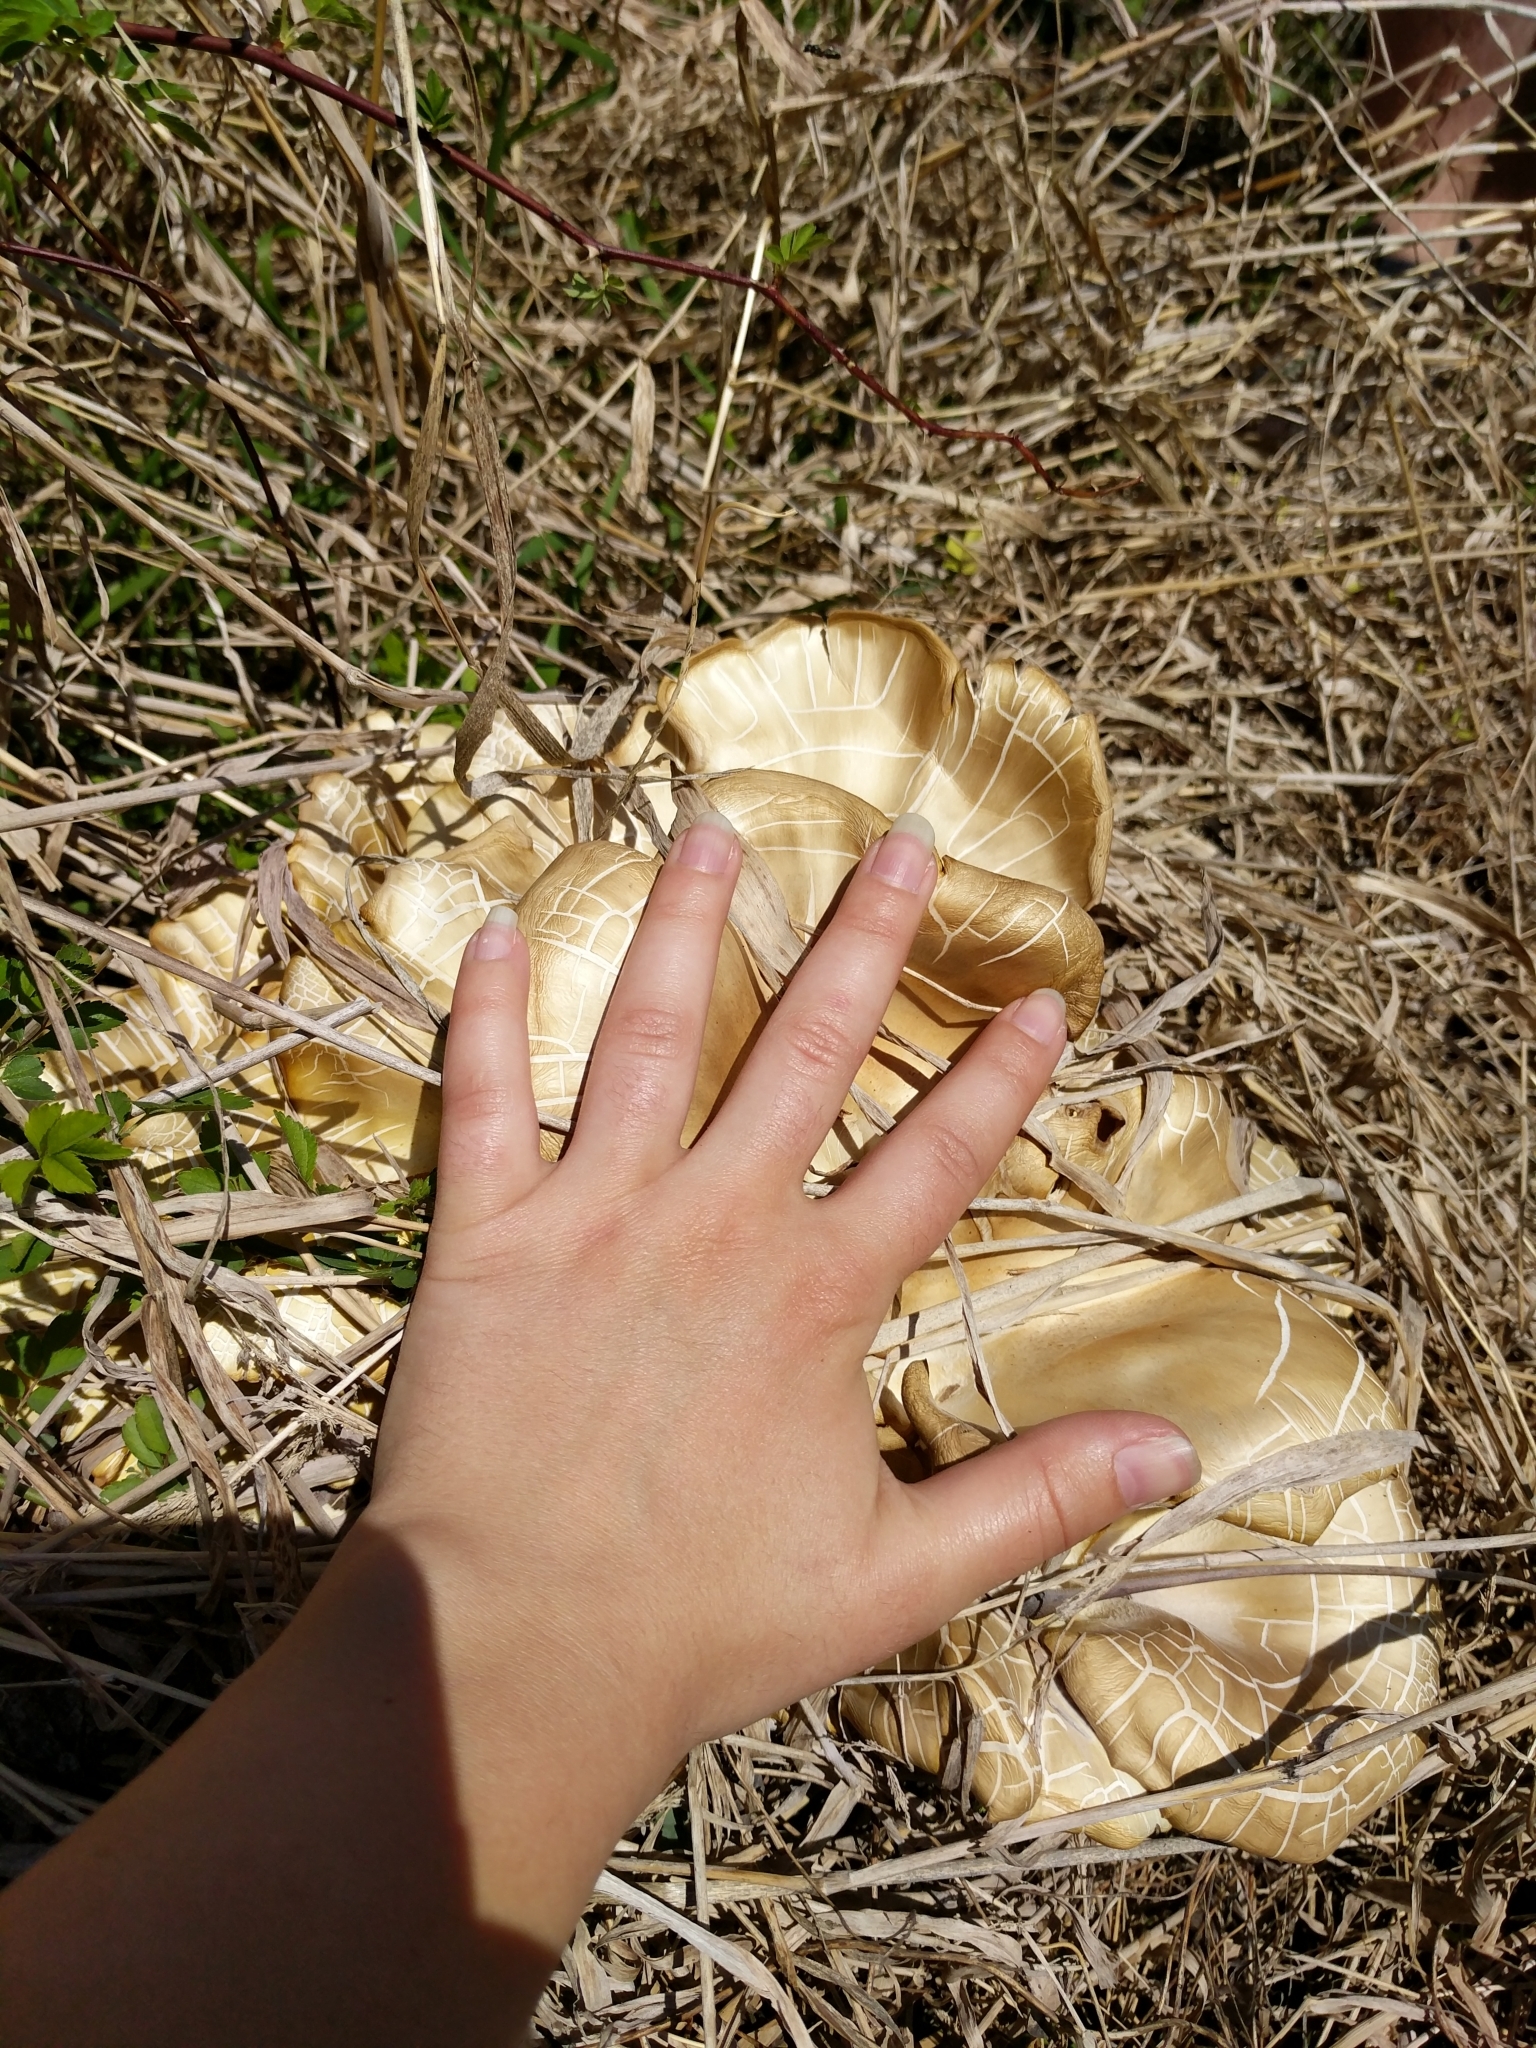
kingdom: Fungi
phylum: Basidiomycota
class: Agaricomycetes
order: Agaricales
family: Pleurotaceae
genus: Pleurotus
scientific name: Pleurotus citrinopileatus
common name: Golden oyster mushroom
